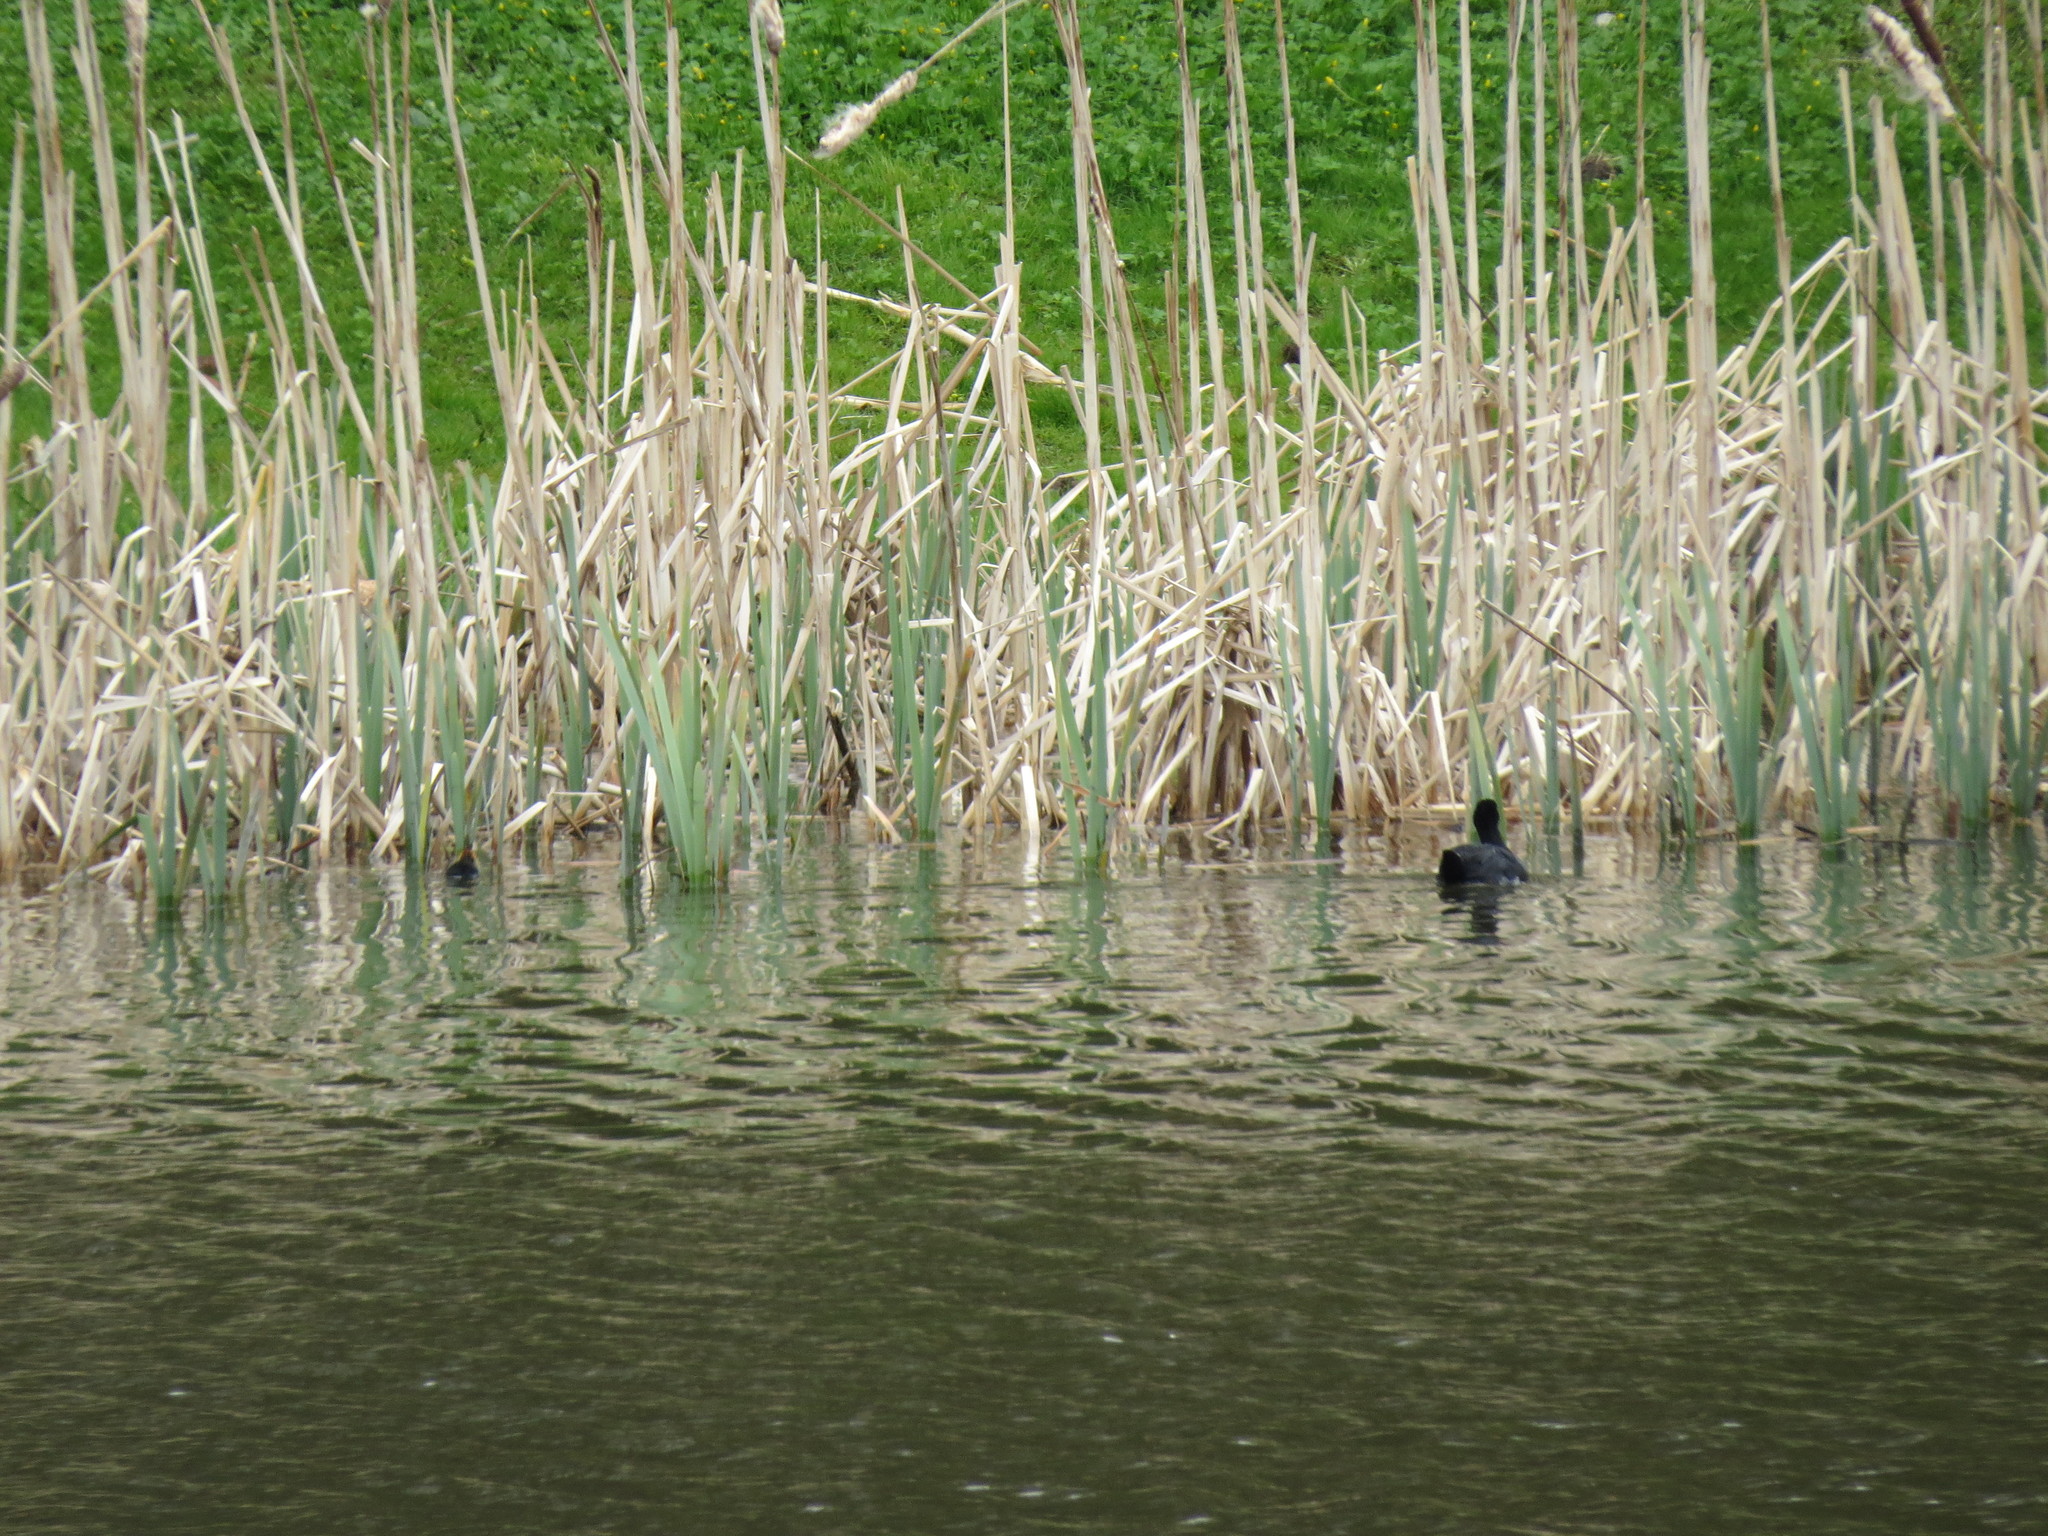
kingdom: Animalia
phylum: Chordata
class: Aves
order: Gruiformes
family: Rallidae
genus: Fulica
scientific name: Fulica atra
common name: Eurasian coot
